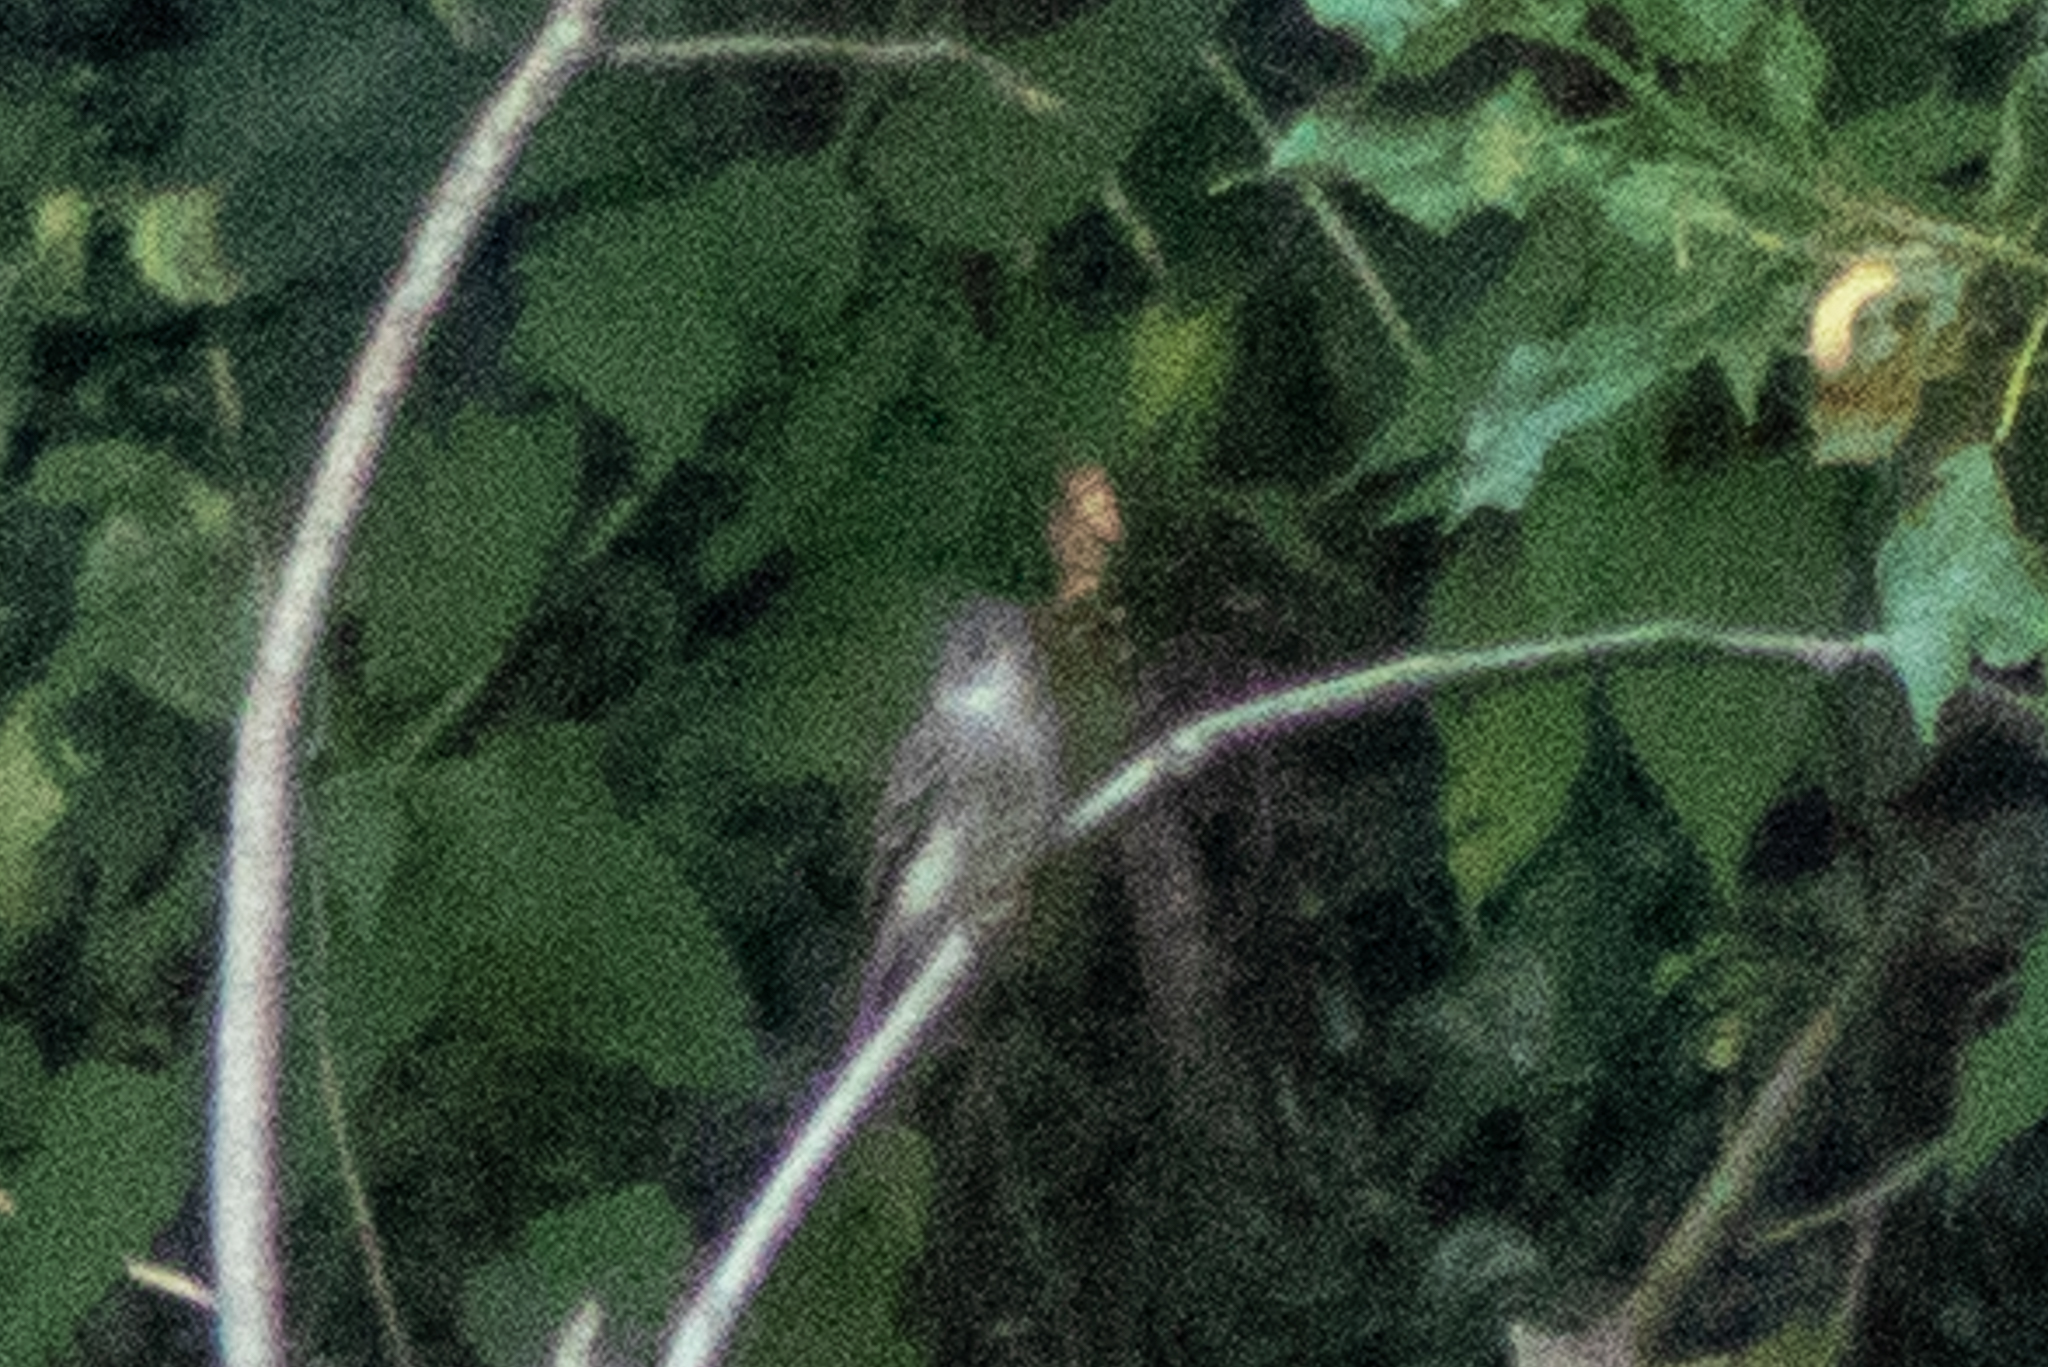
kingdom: Animalia
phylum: Chordata
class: Aves
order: Passeriformes
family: Tyrannidae
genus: Contopus
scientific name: Contopus virens
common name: Eastern wood-pewee
